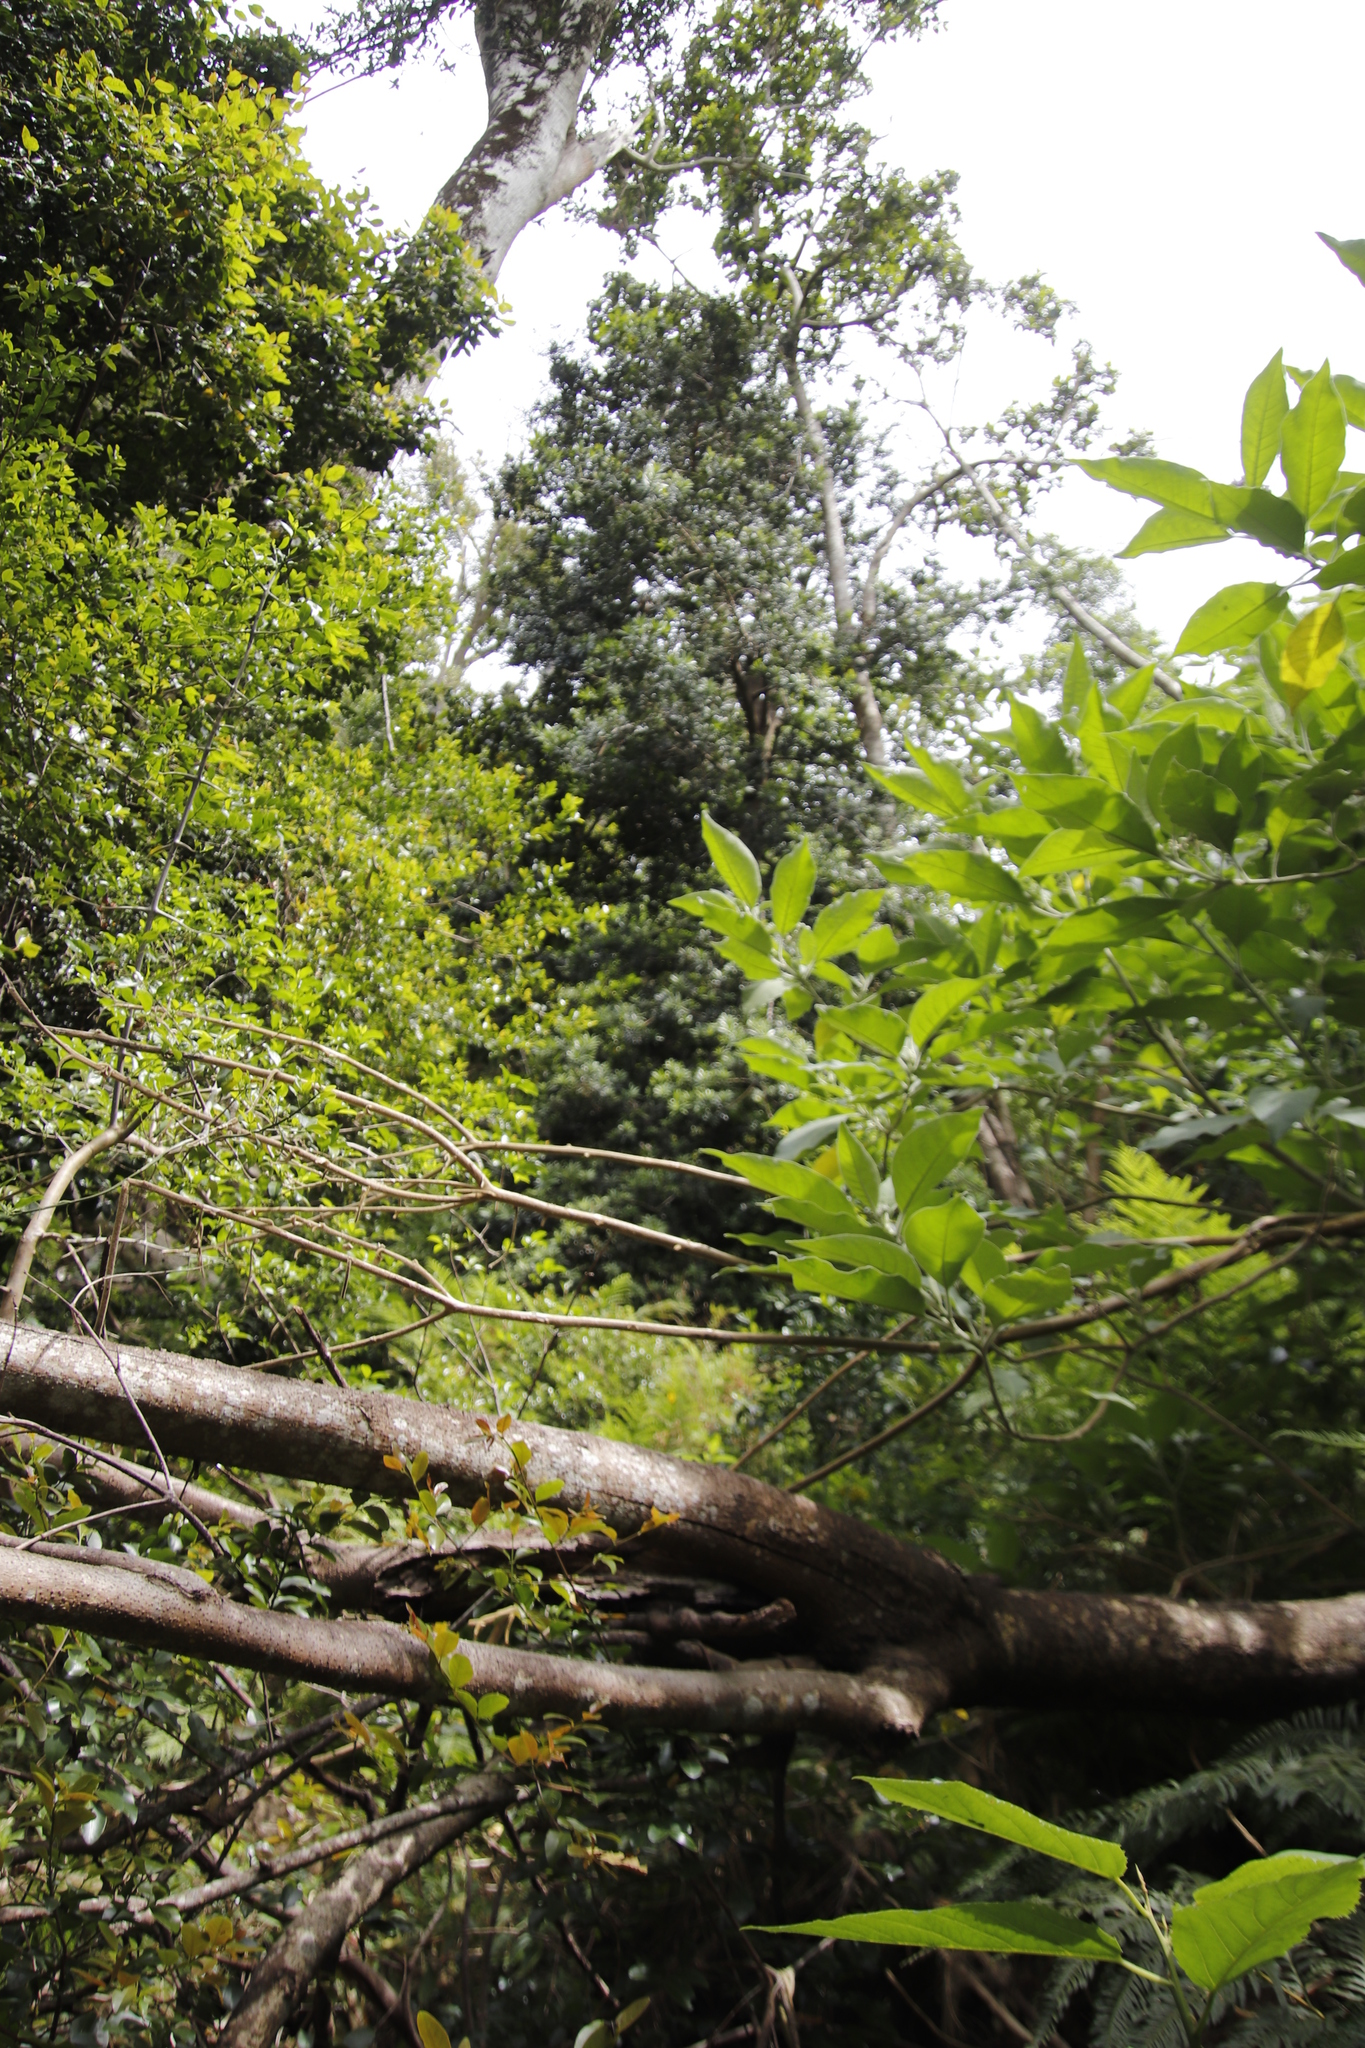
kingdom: Plantae
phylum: Tracheophyta
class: Pinopsida
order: Pinales
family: Podocarpaceae
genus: Podocarpus
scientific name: Podocarpus latifolius
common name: True yellowwood
